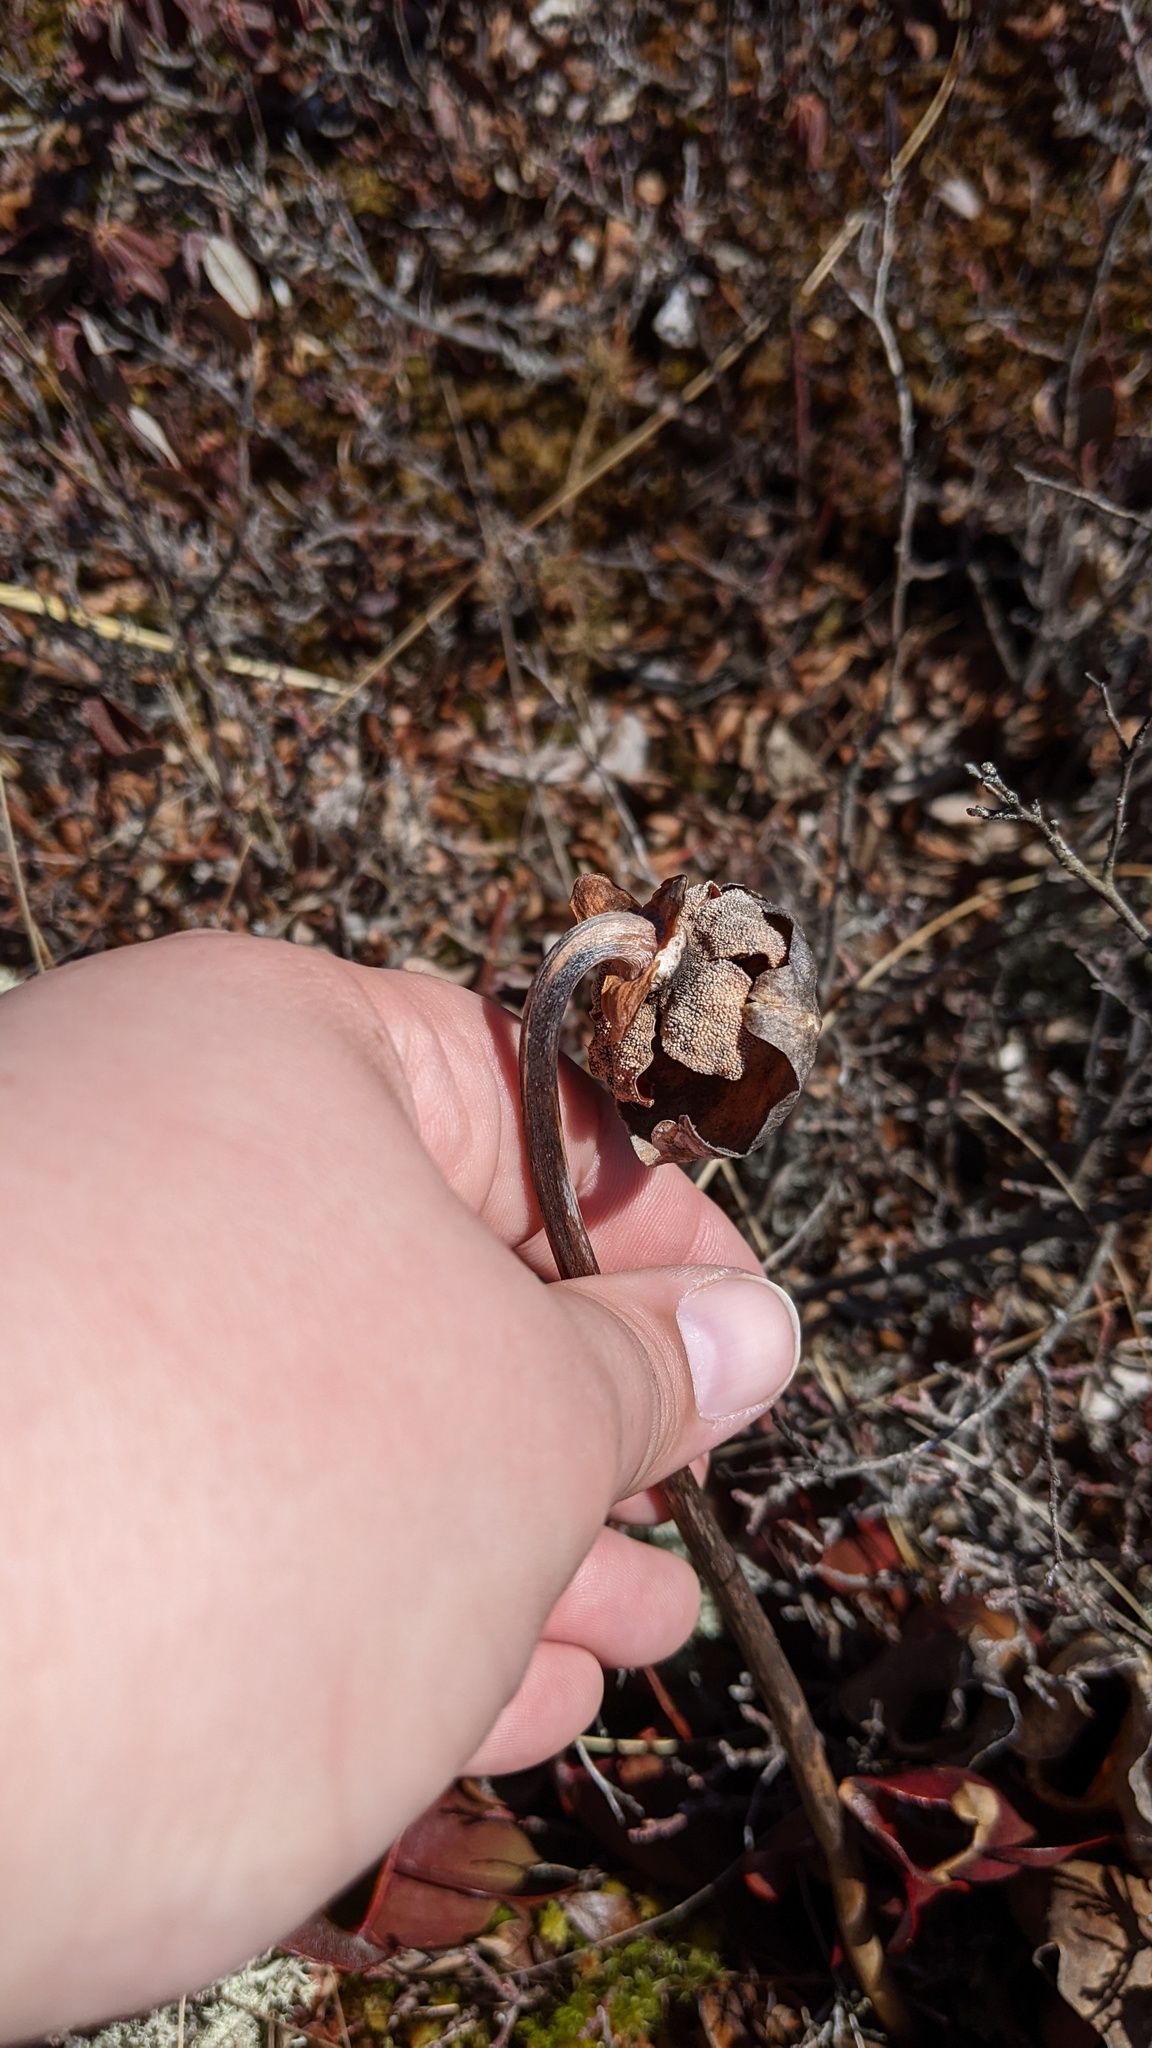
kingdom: Plantae
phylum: Tracheophyta
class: Magnoliopsida
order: Ericales
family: Sarraceniaceae
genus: Sarracenia
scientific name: Sarracenia purpurea
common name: Pitcherplant
